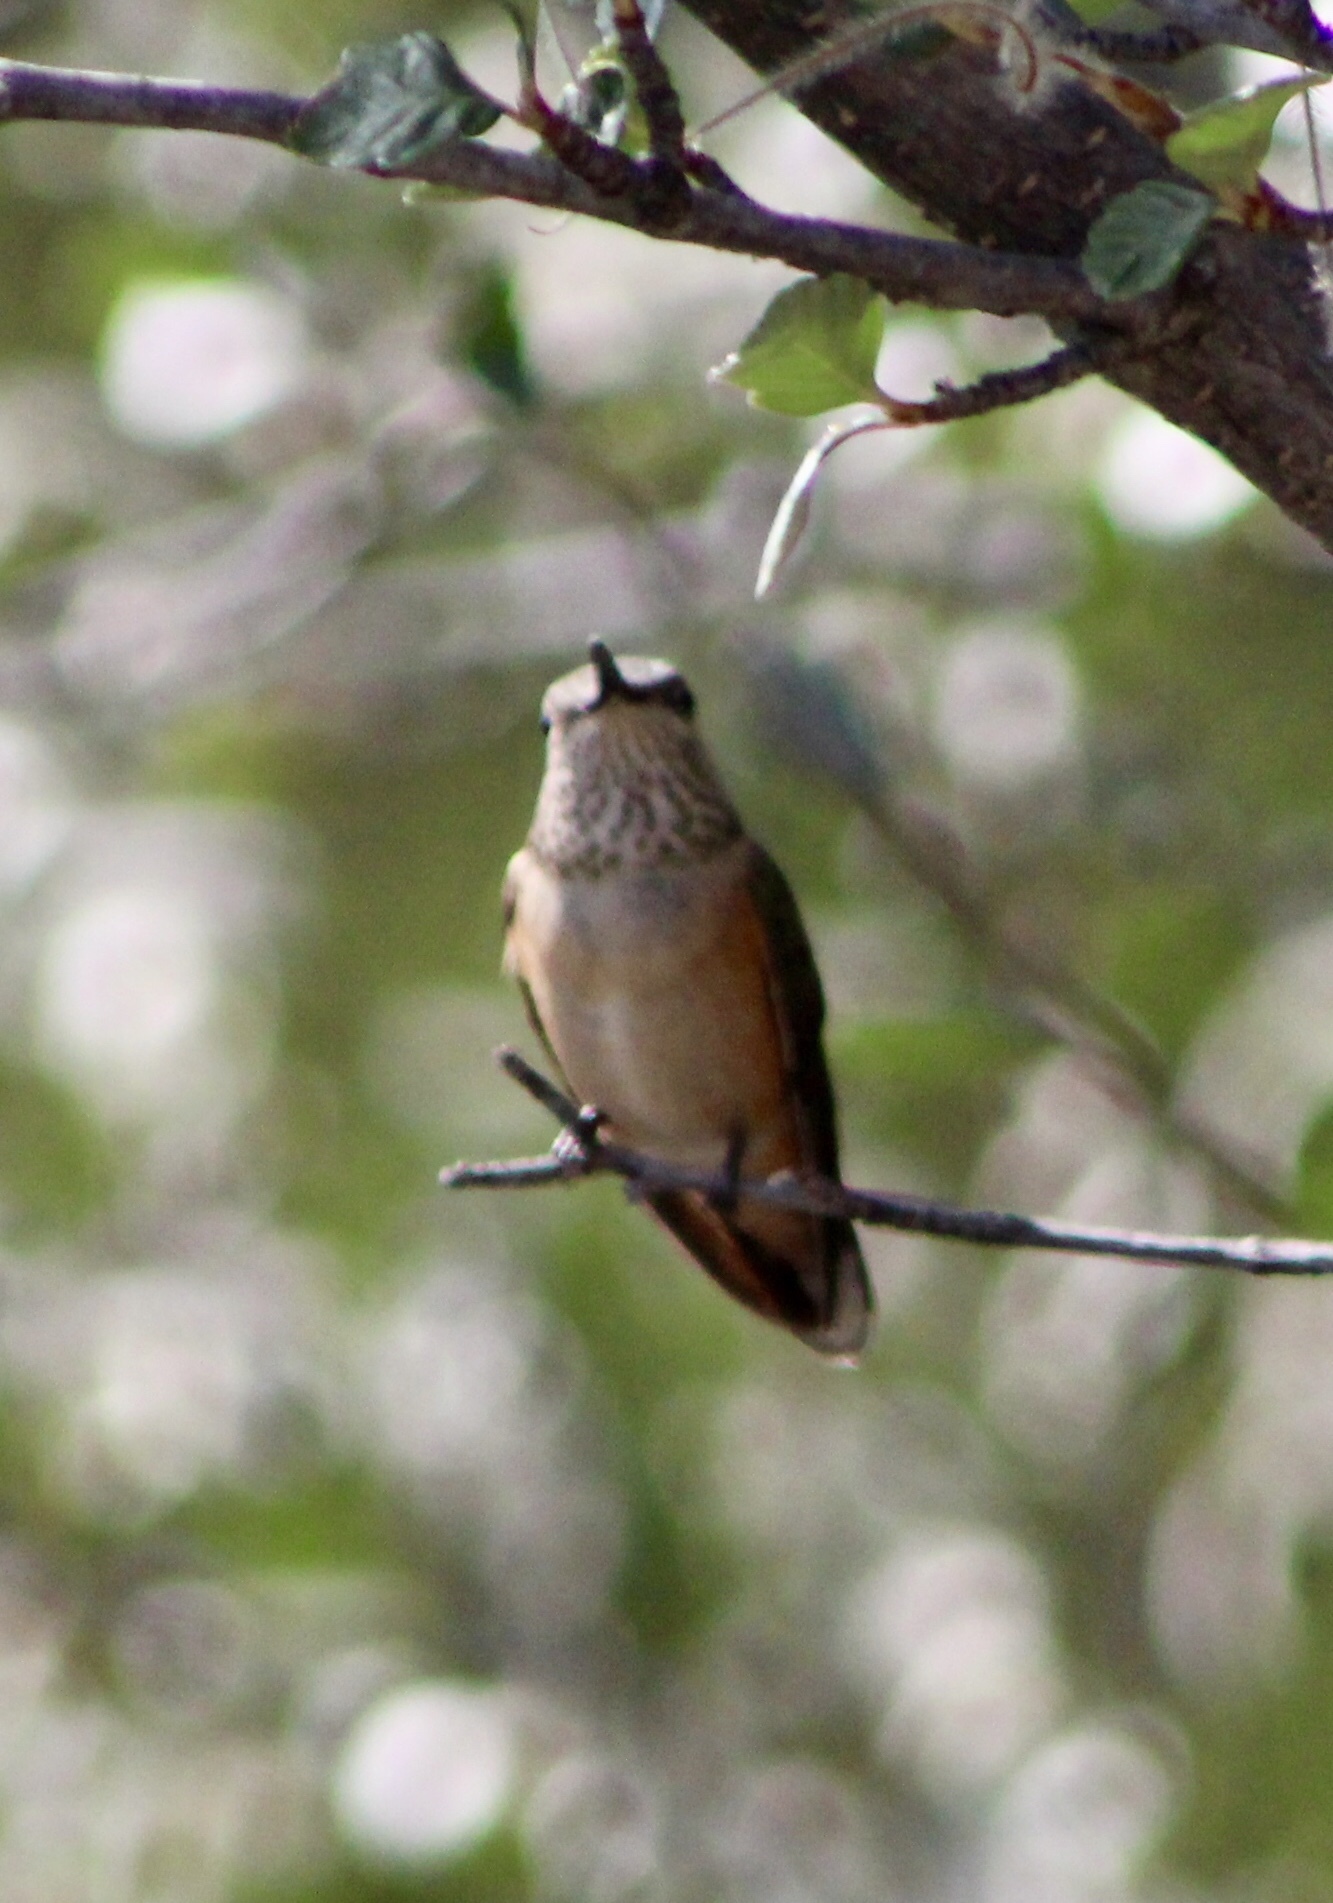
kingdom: Animalia
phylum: Chordata
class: Aves
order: Apodiformes
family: Trochilidae
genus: Selasphorus
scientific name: Selasphorus platycercus
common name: Broad-tailed hummingbird
